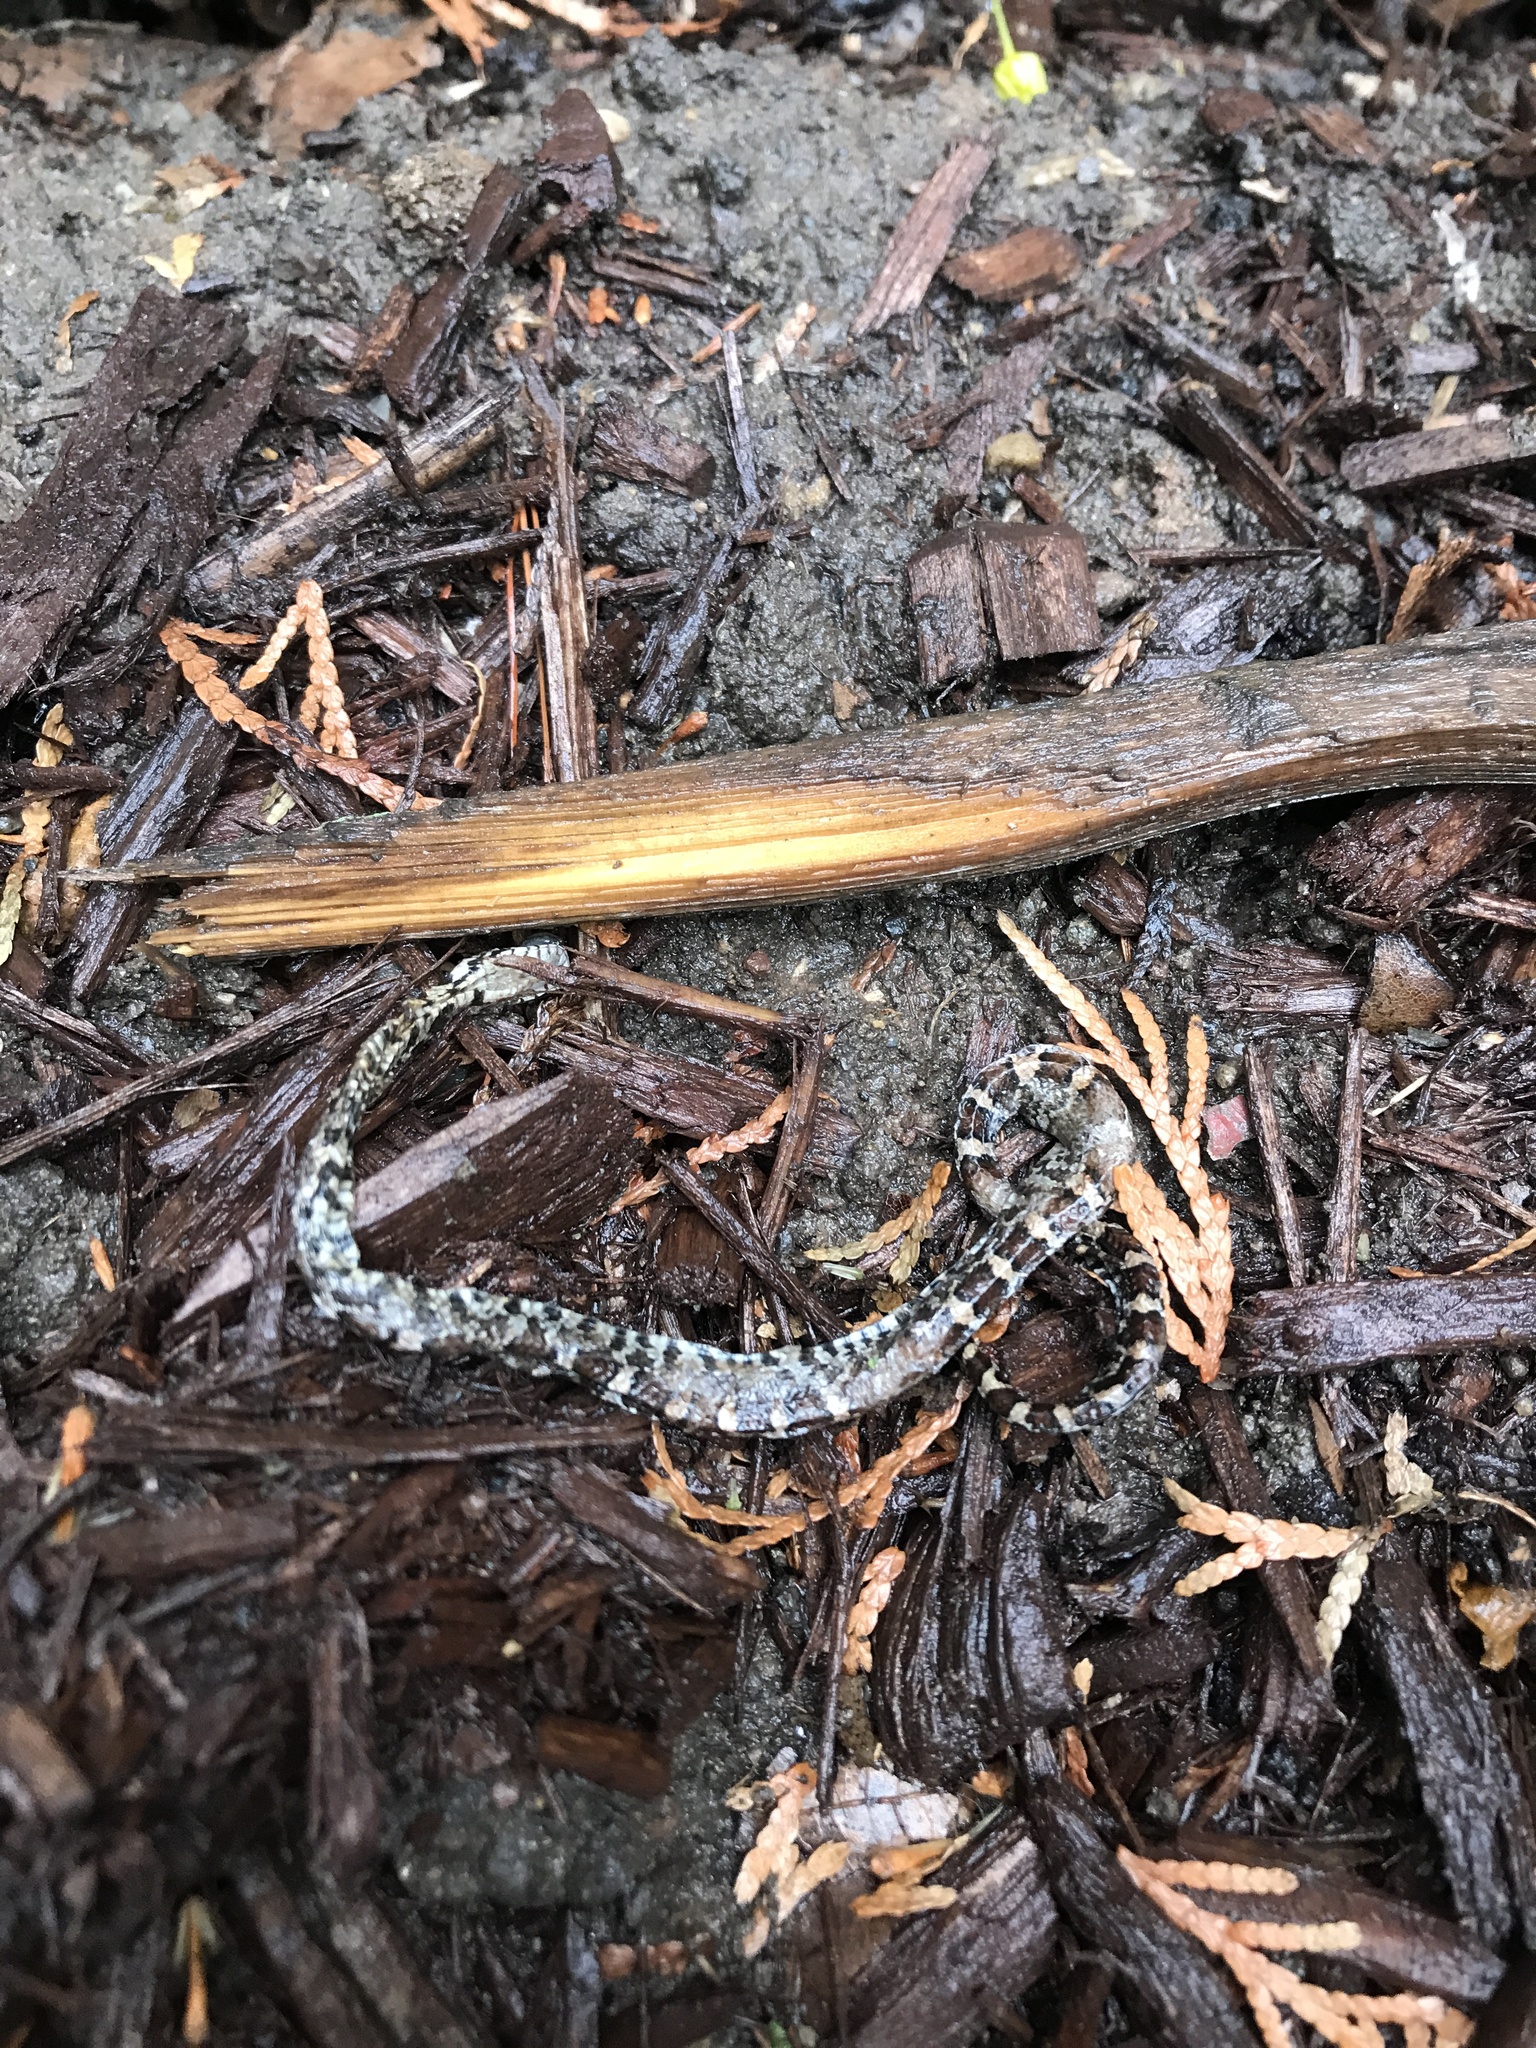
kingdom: Animalia
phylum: Chordata
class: Squamata
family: Colubridae
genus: Lampropeltis
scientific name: Lampropeltis triangulum
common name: Eastern milksnake
